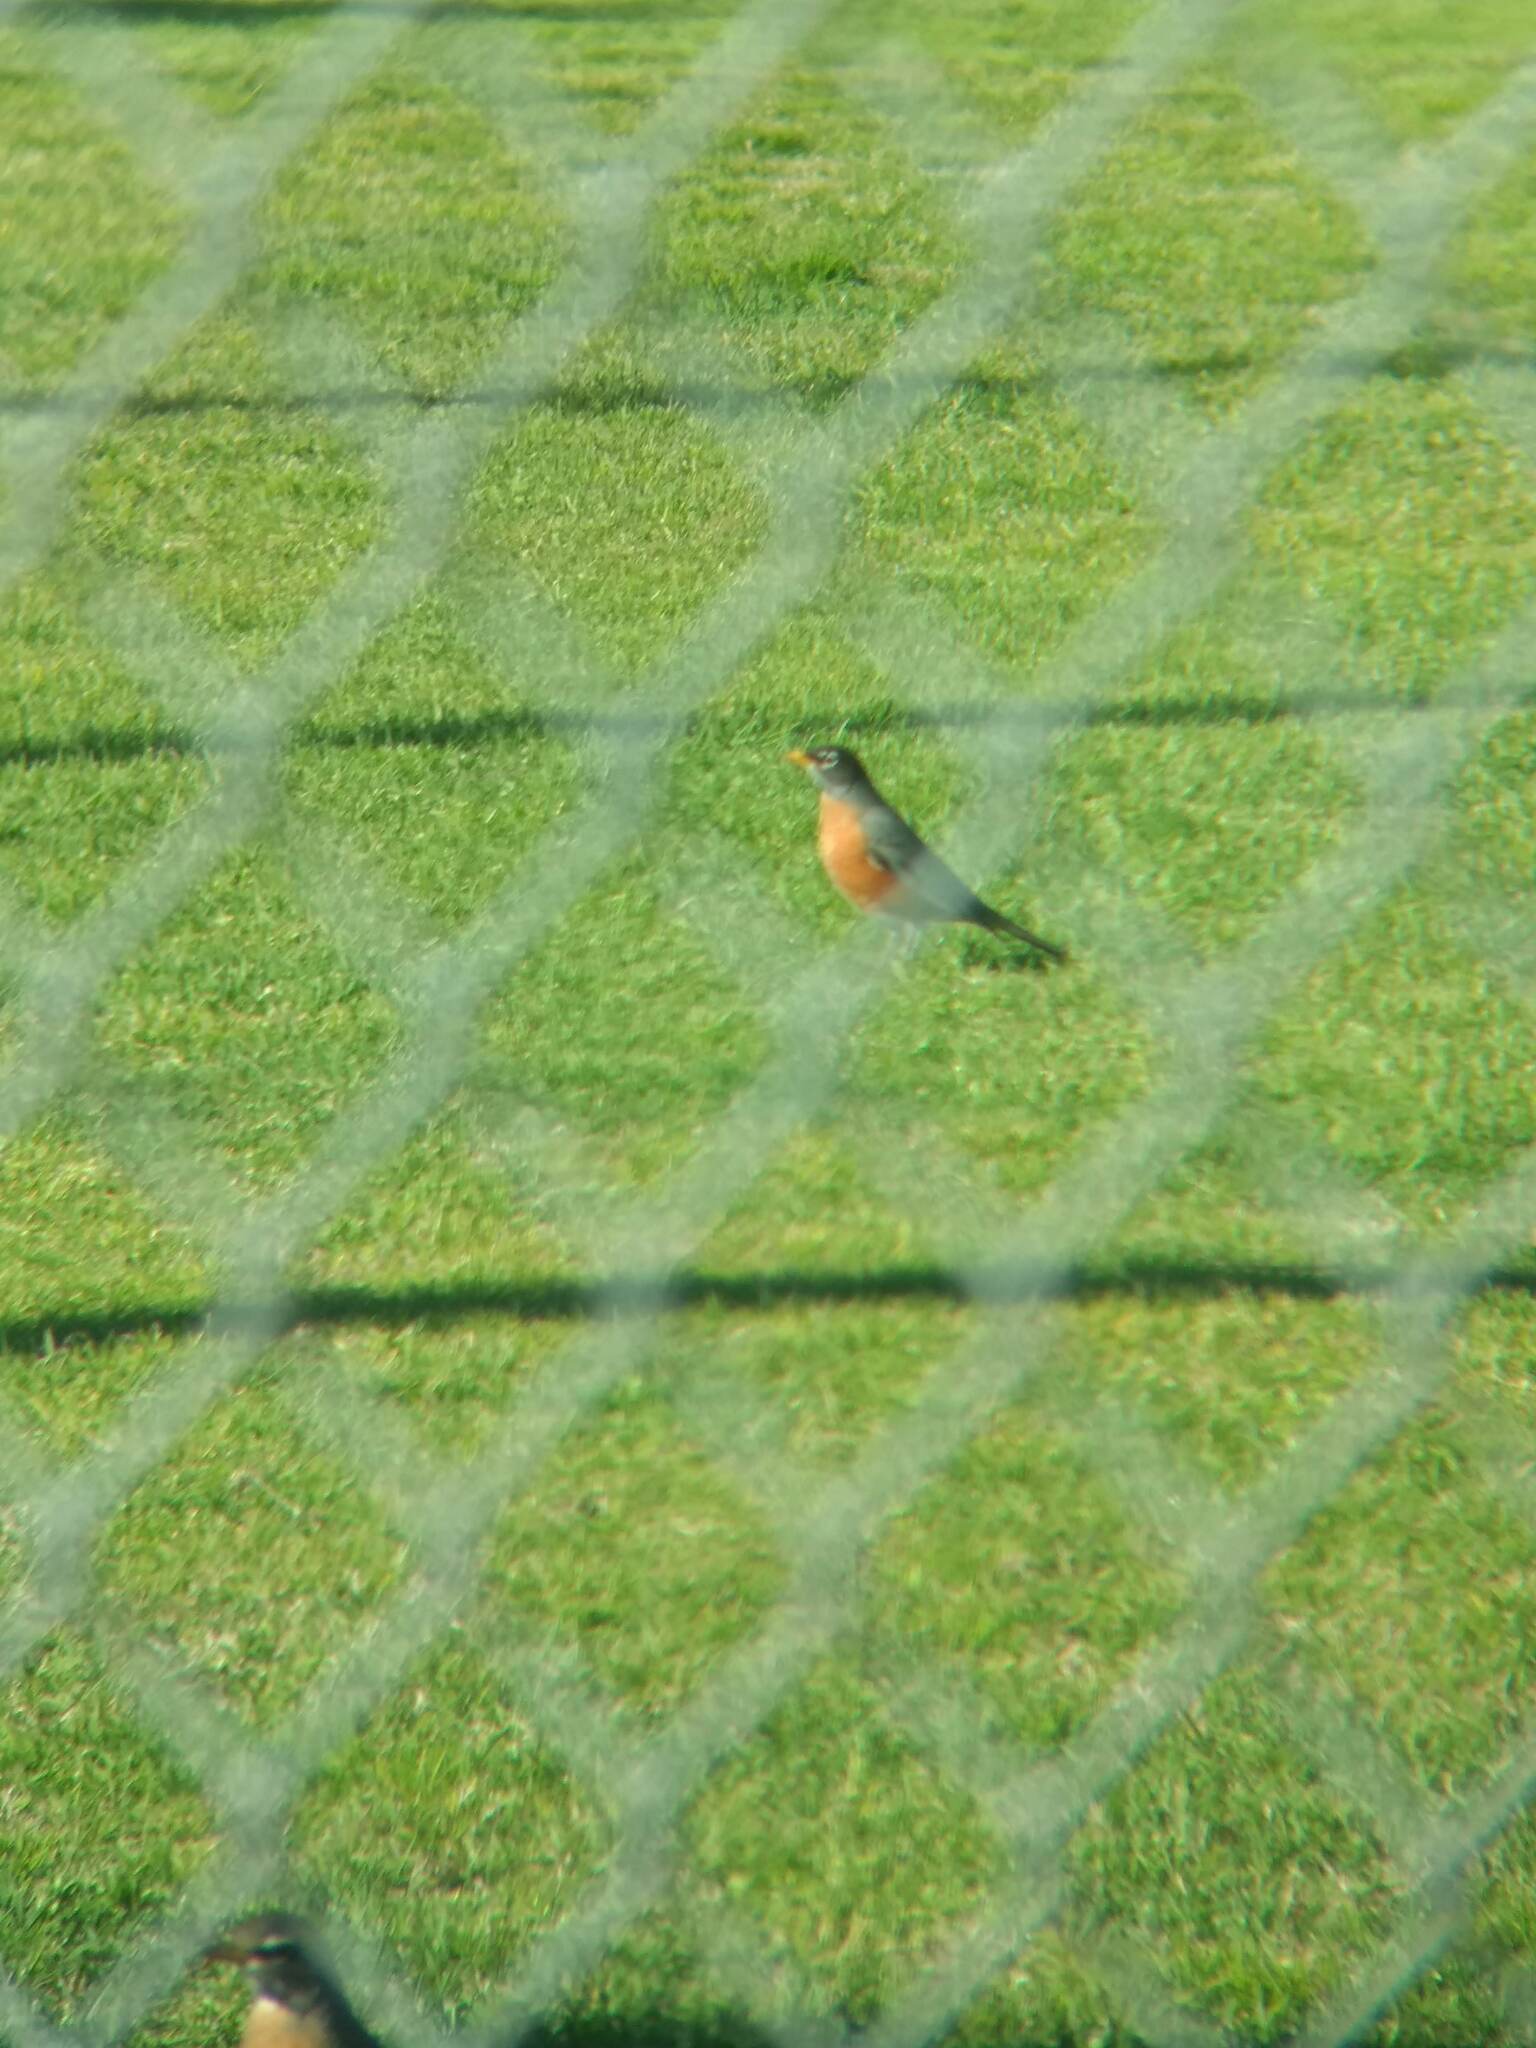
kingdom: Animalia
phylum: Chordata
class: Aves
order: Passeriformes
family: Turdidae
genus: Turdus
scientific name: Turdus migratorius
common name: American robin
